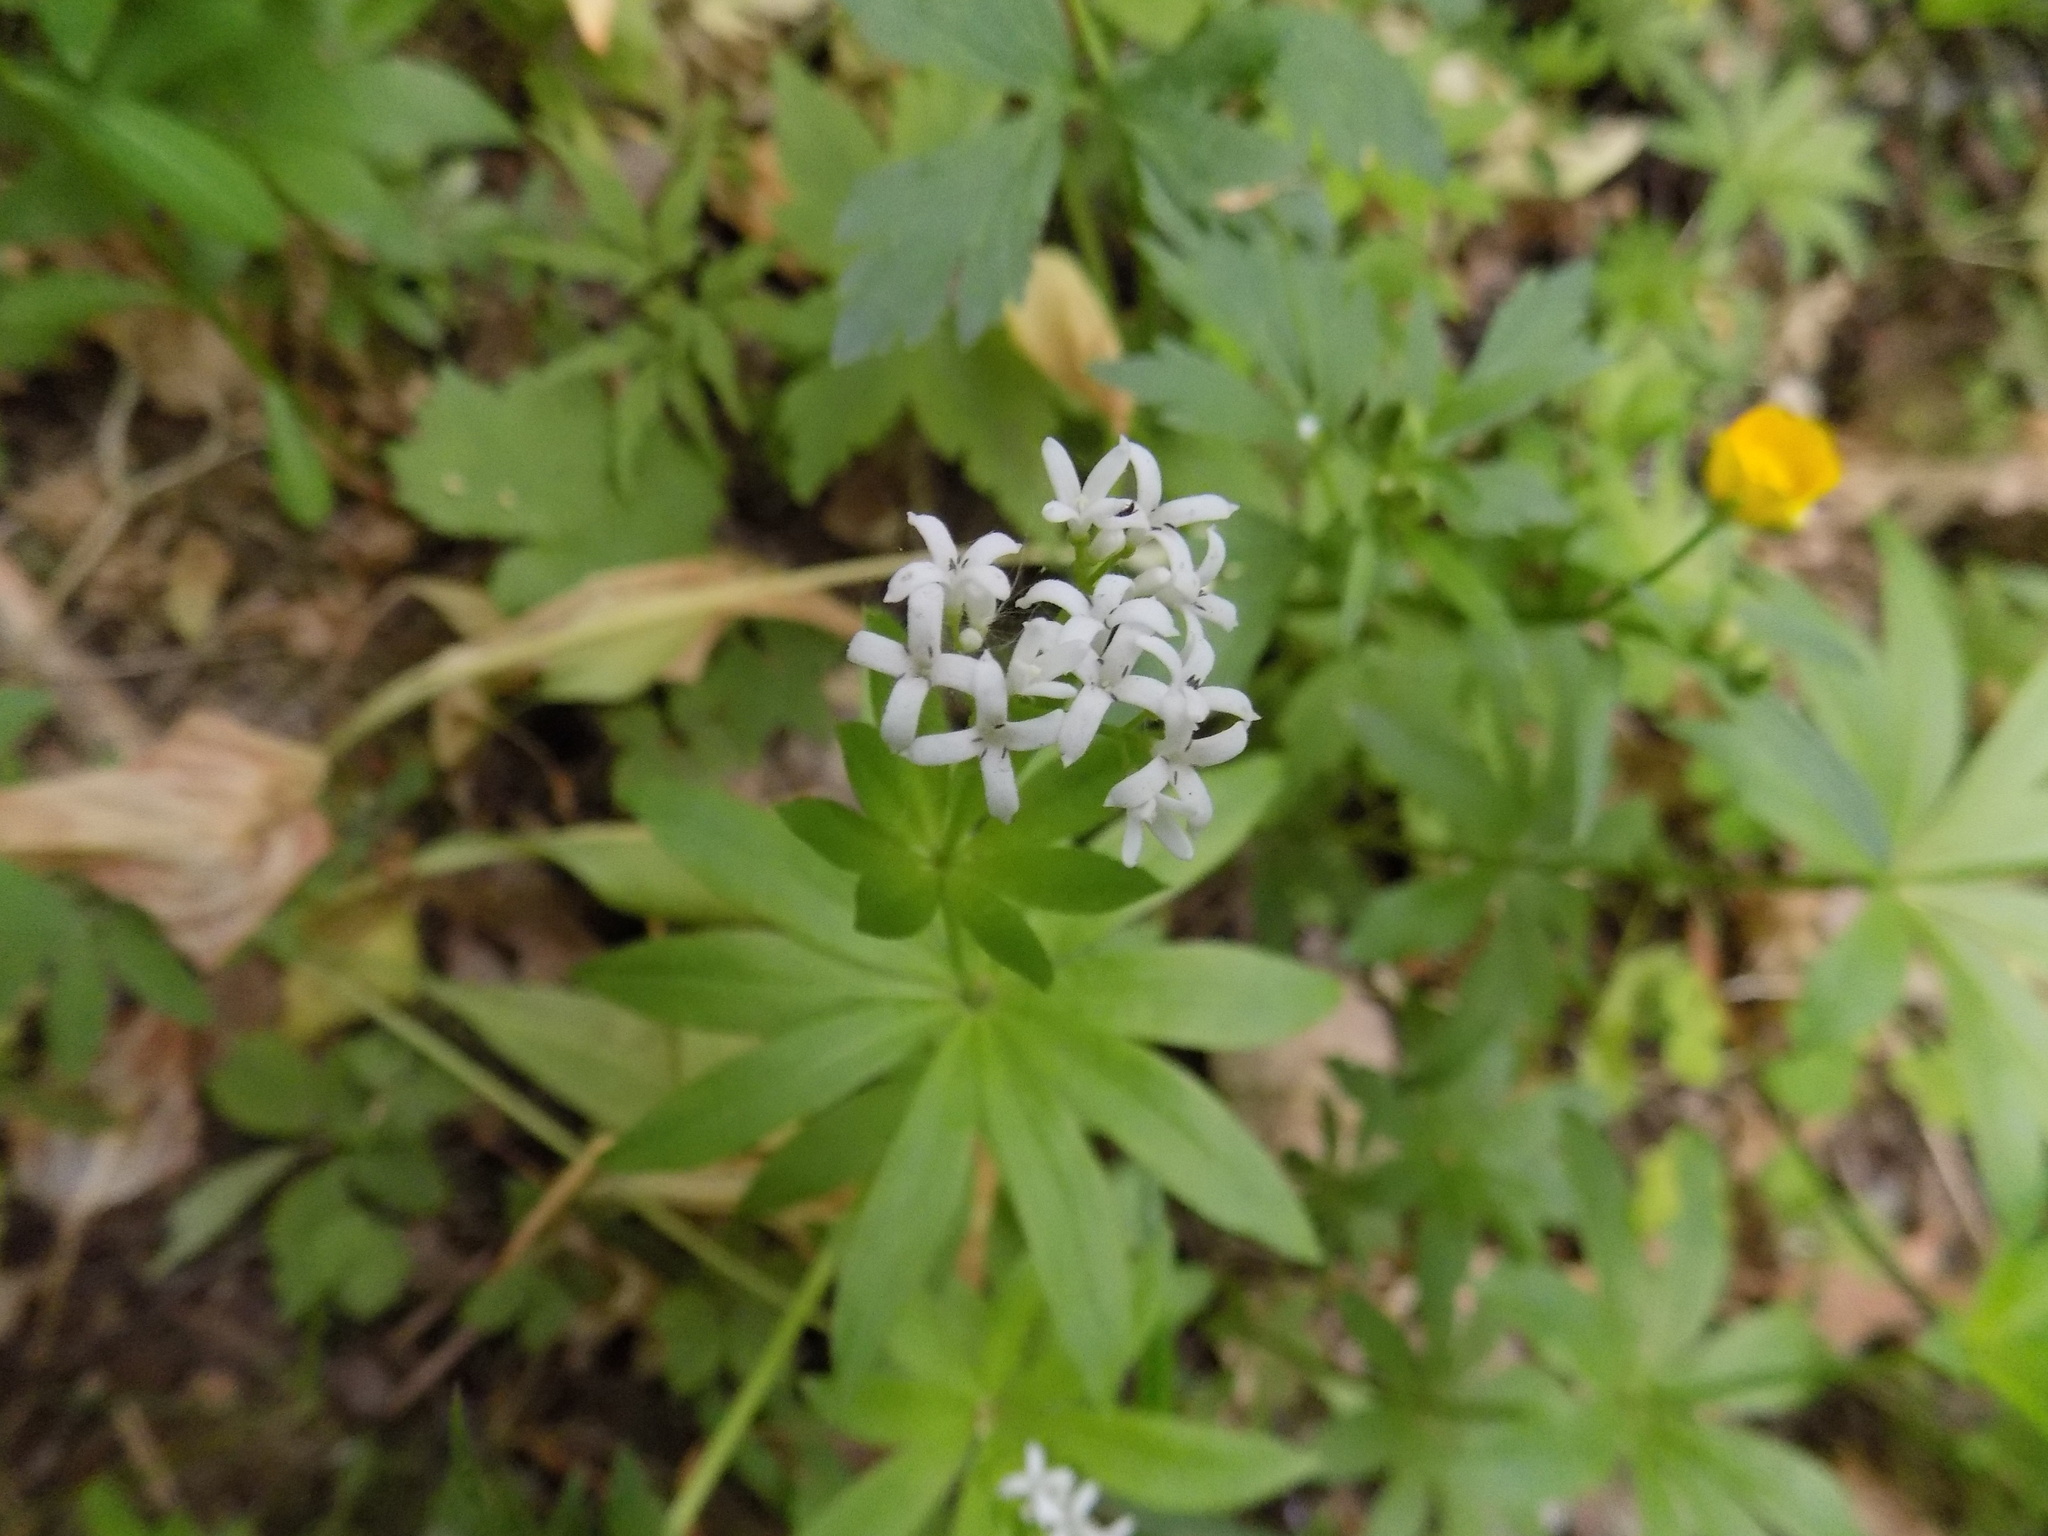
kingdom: Plantae
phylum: Tracheophyta
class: Magnoliopsida
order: Gentianales
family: Rubiaceae
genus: Galium
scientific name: Galium odoratum
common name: Sweet woodruff
